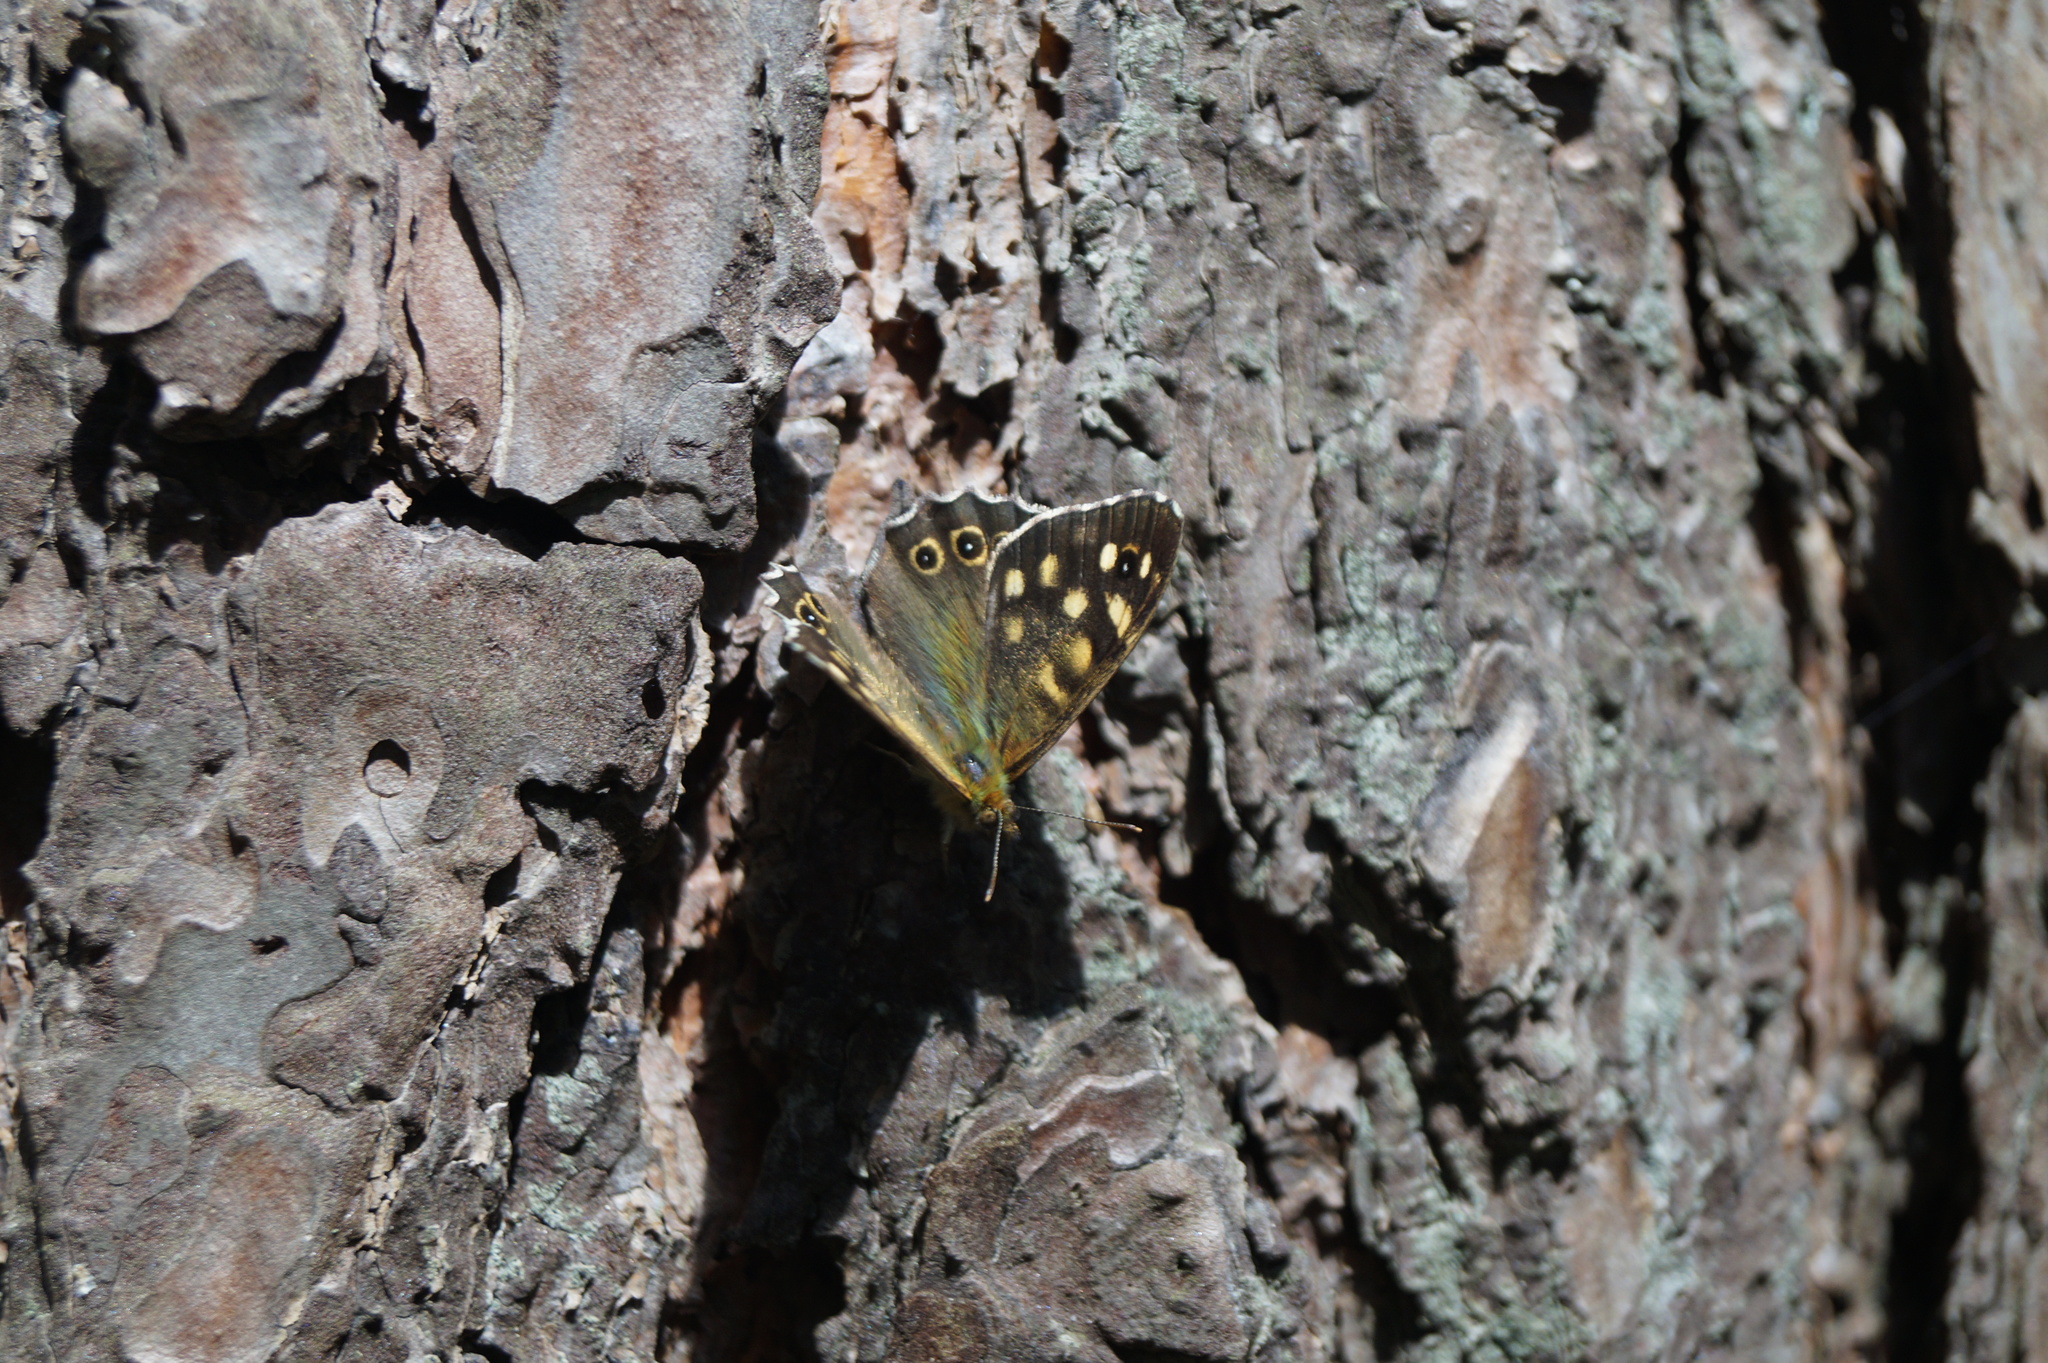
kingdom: Animalia
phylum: Arthropoda
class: Insecta
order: Lepidoptera
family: Nymphalidae
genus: Pararge
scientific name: Pararge aegeria
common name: Speckled wood
